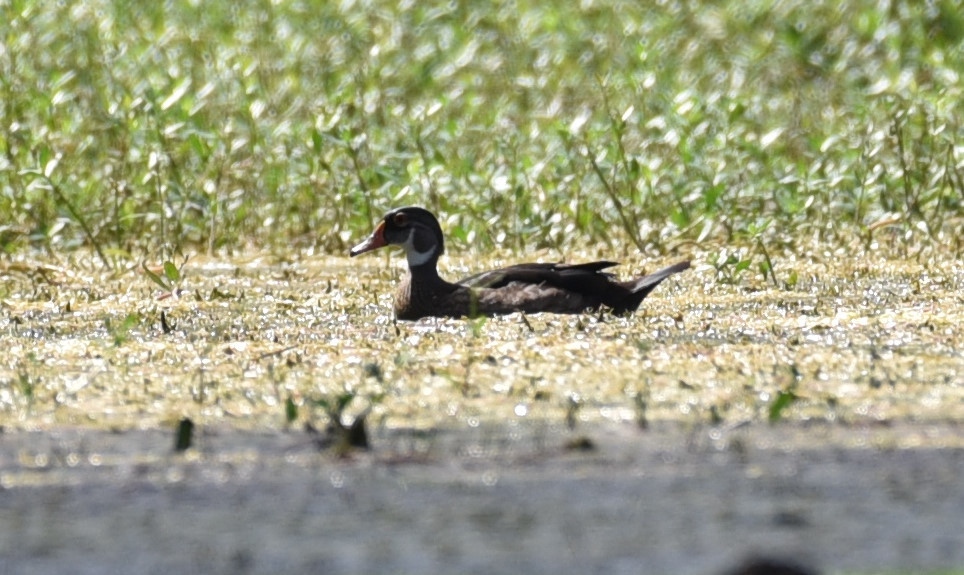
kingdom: Animalia
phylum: Chordata
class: Aves
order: Anseriformes
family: Anatidae
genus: Aix
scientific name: Aix sponsa
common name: Wood duck
